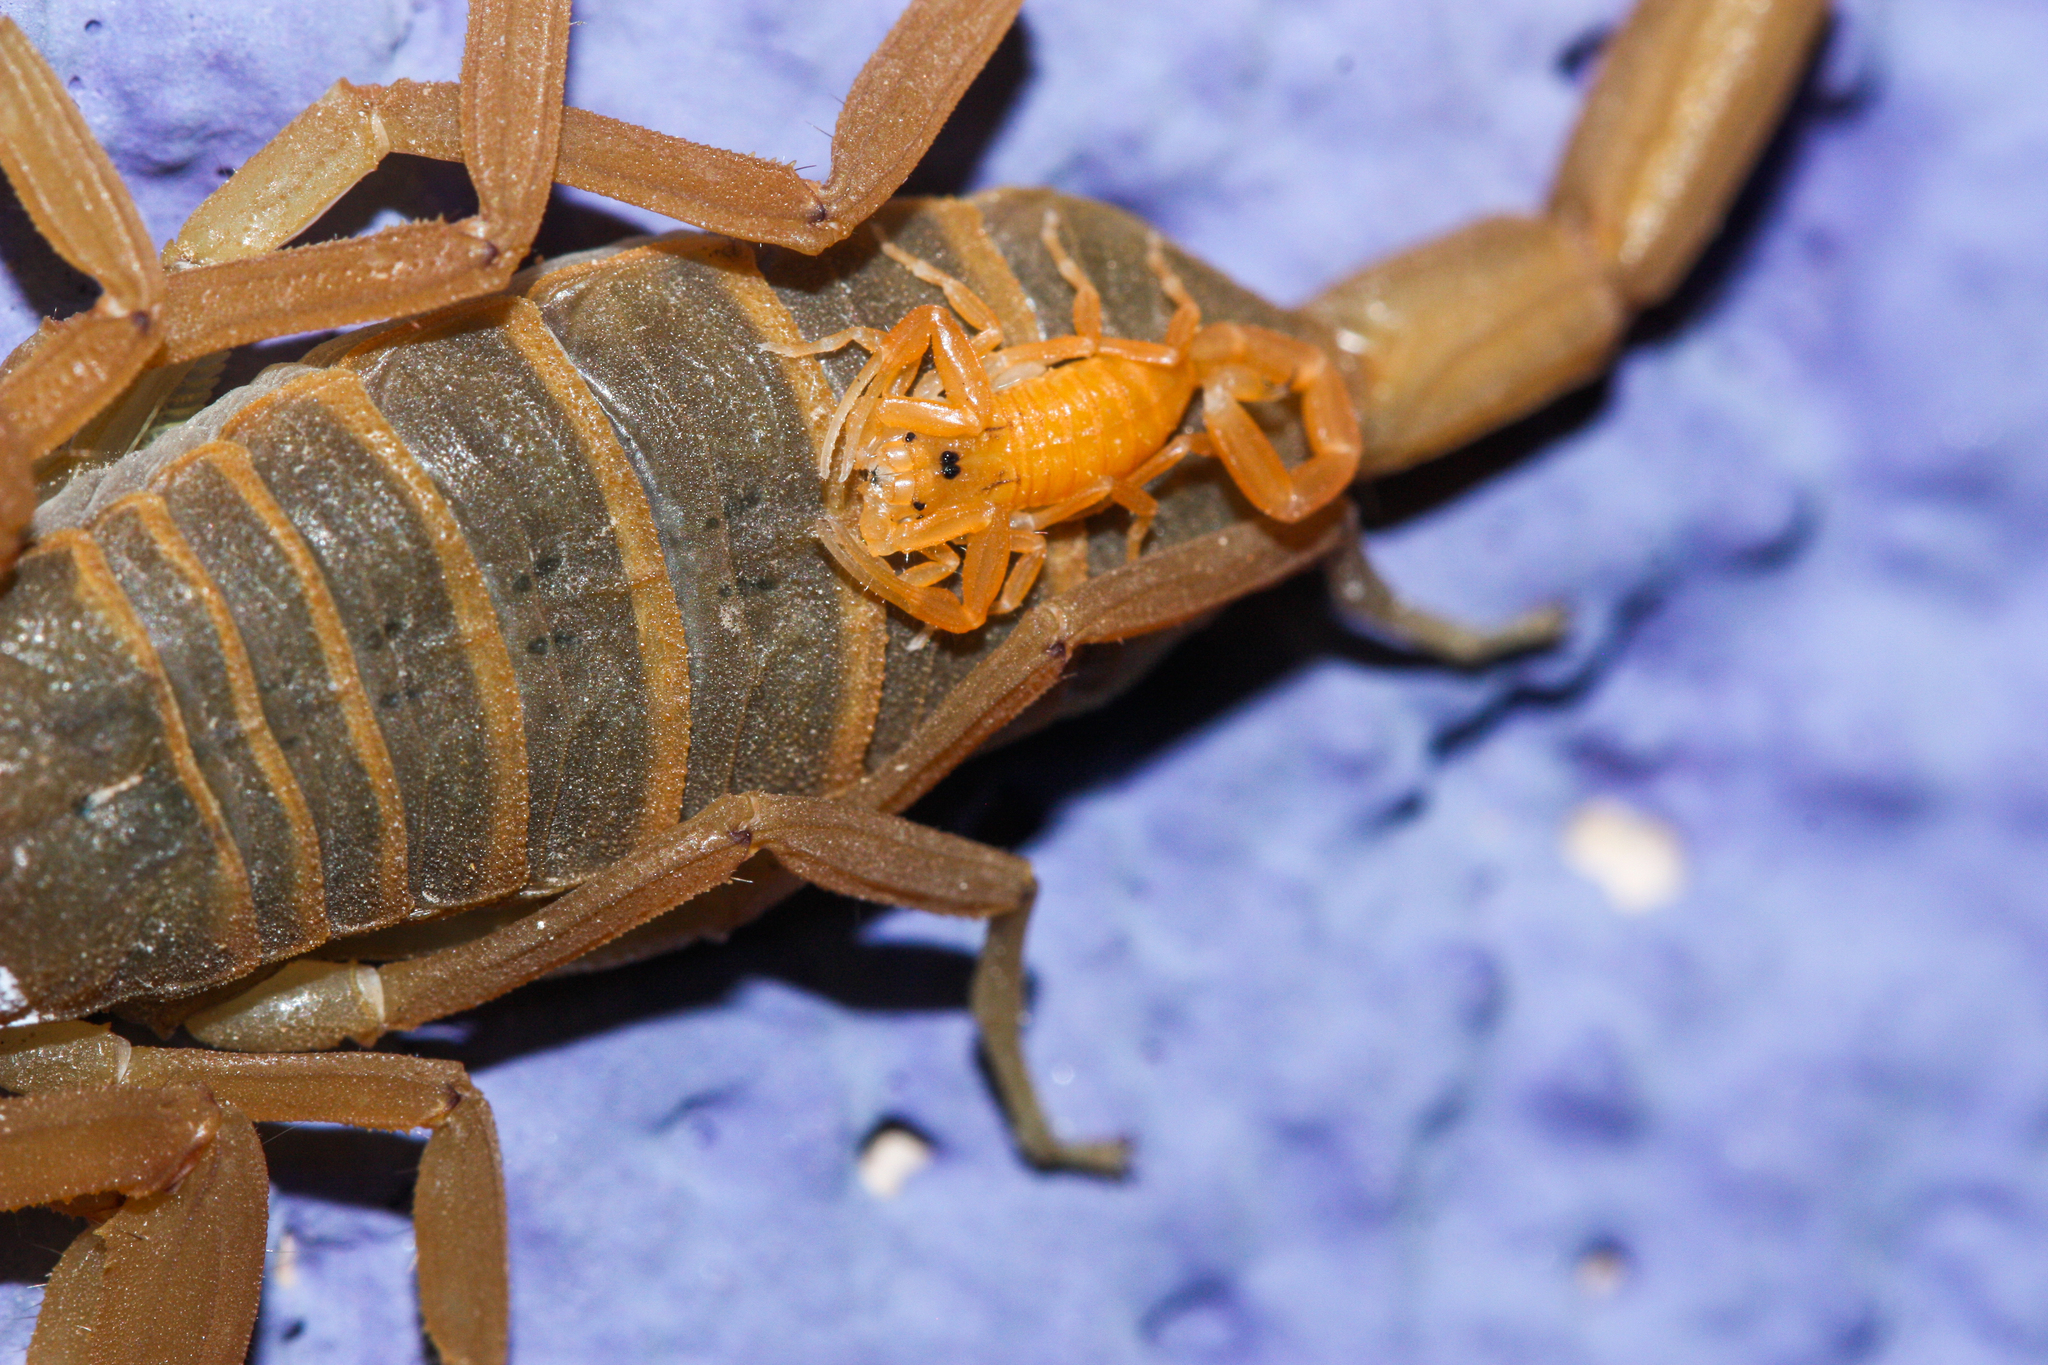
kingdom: Animalia
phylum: Arthropoda
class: Arachnida
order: Scorpiones
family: Buthidae
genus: Centruroides
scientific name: Centruroides sculpturatus
